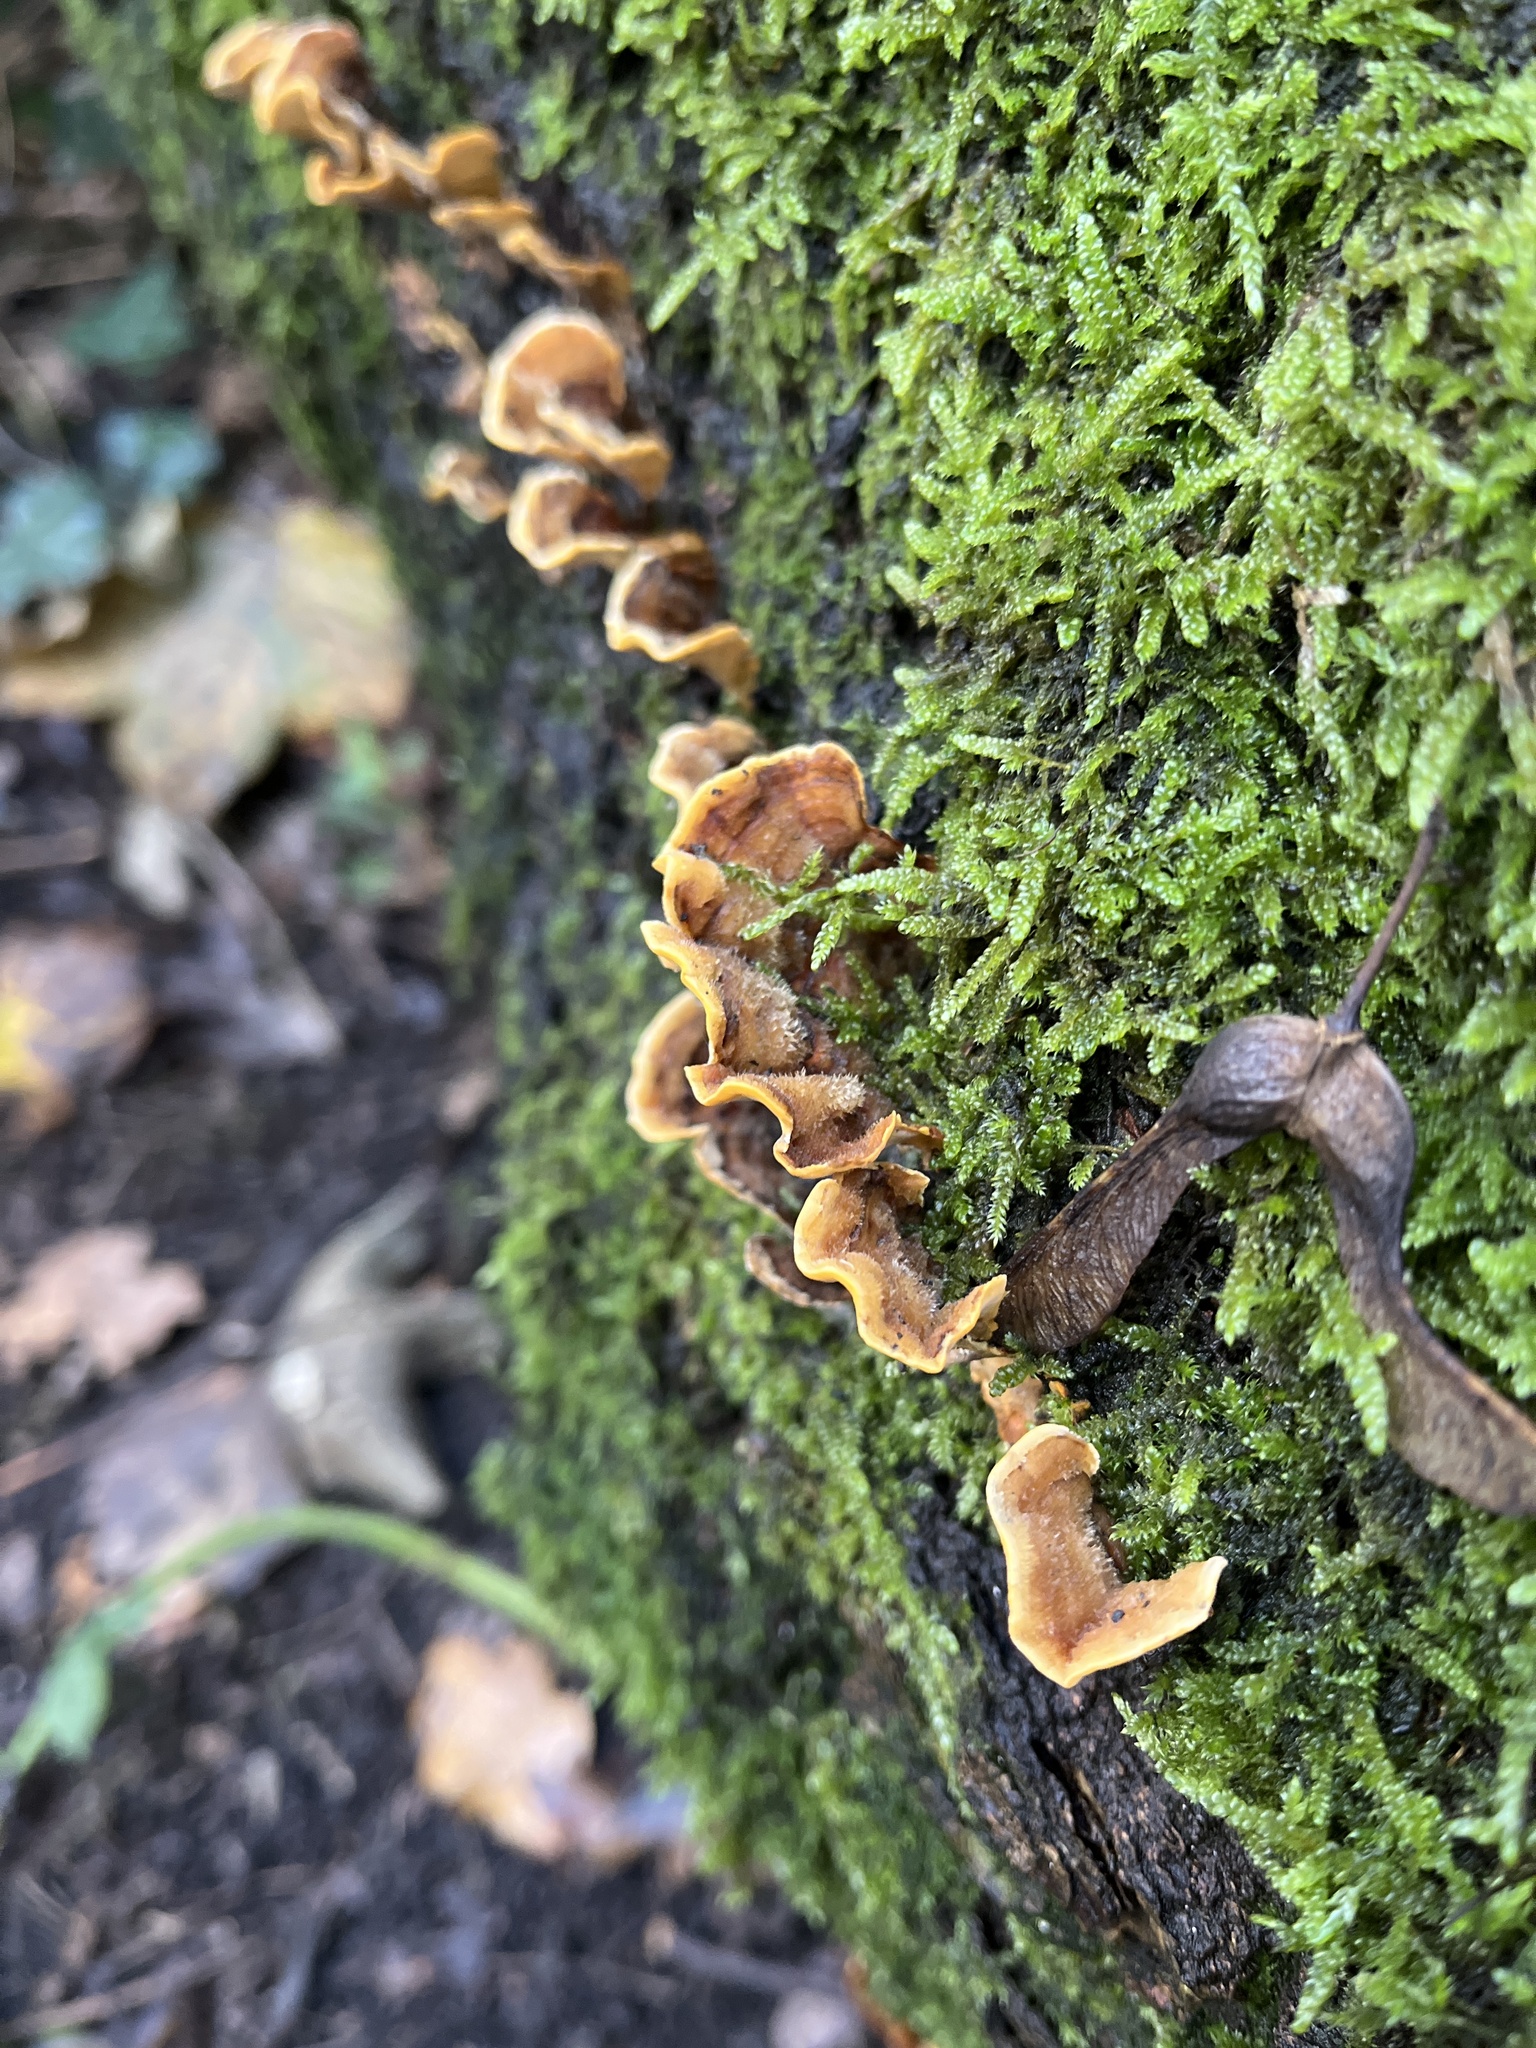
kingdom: Fungi
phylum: Basidiomycota
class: Agaricomycetes
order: Russulales
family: Stereaceae
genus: Stereum
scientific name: Stereum hirsutum
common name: Hairy curtain crust
